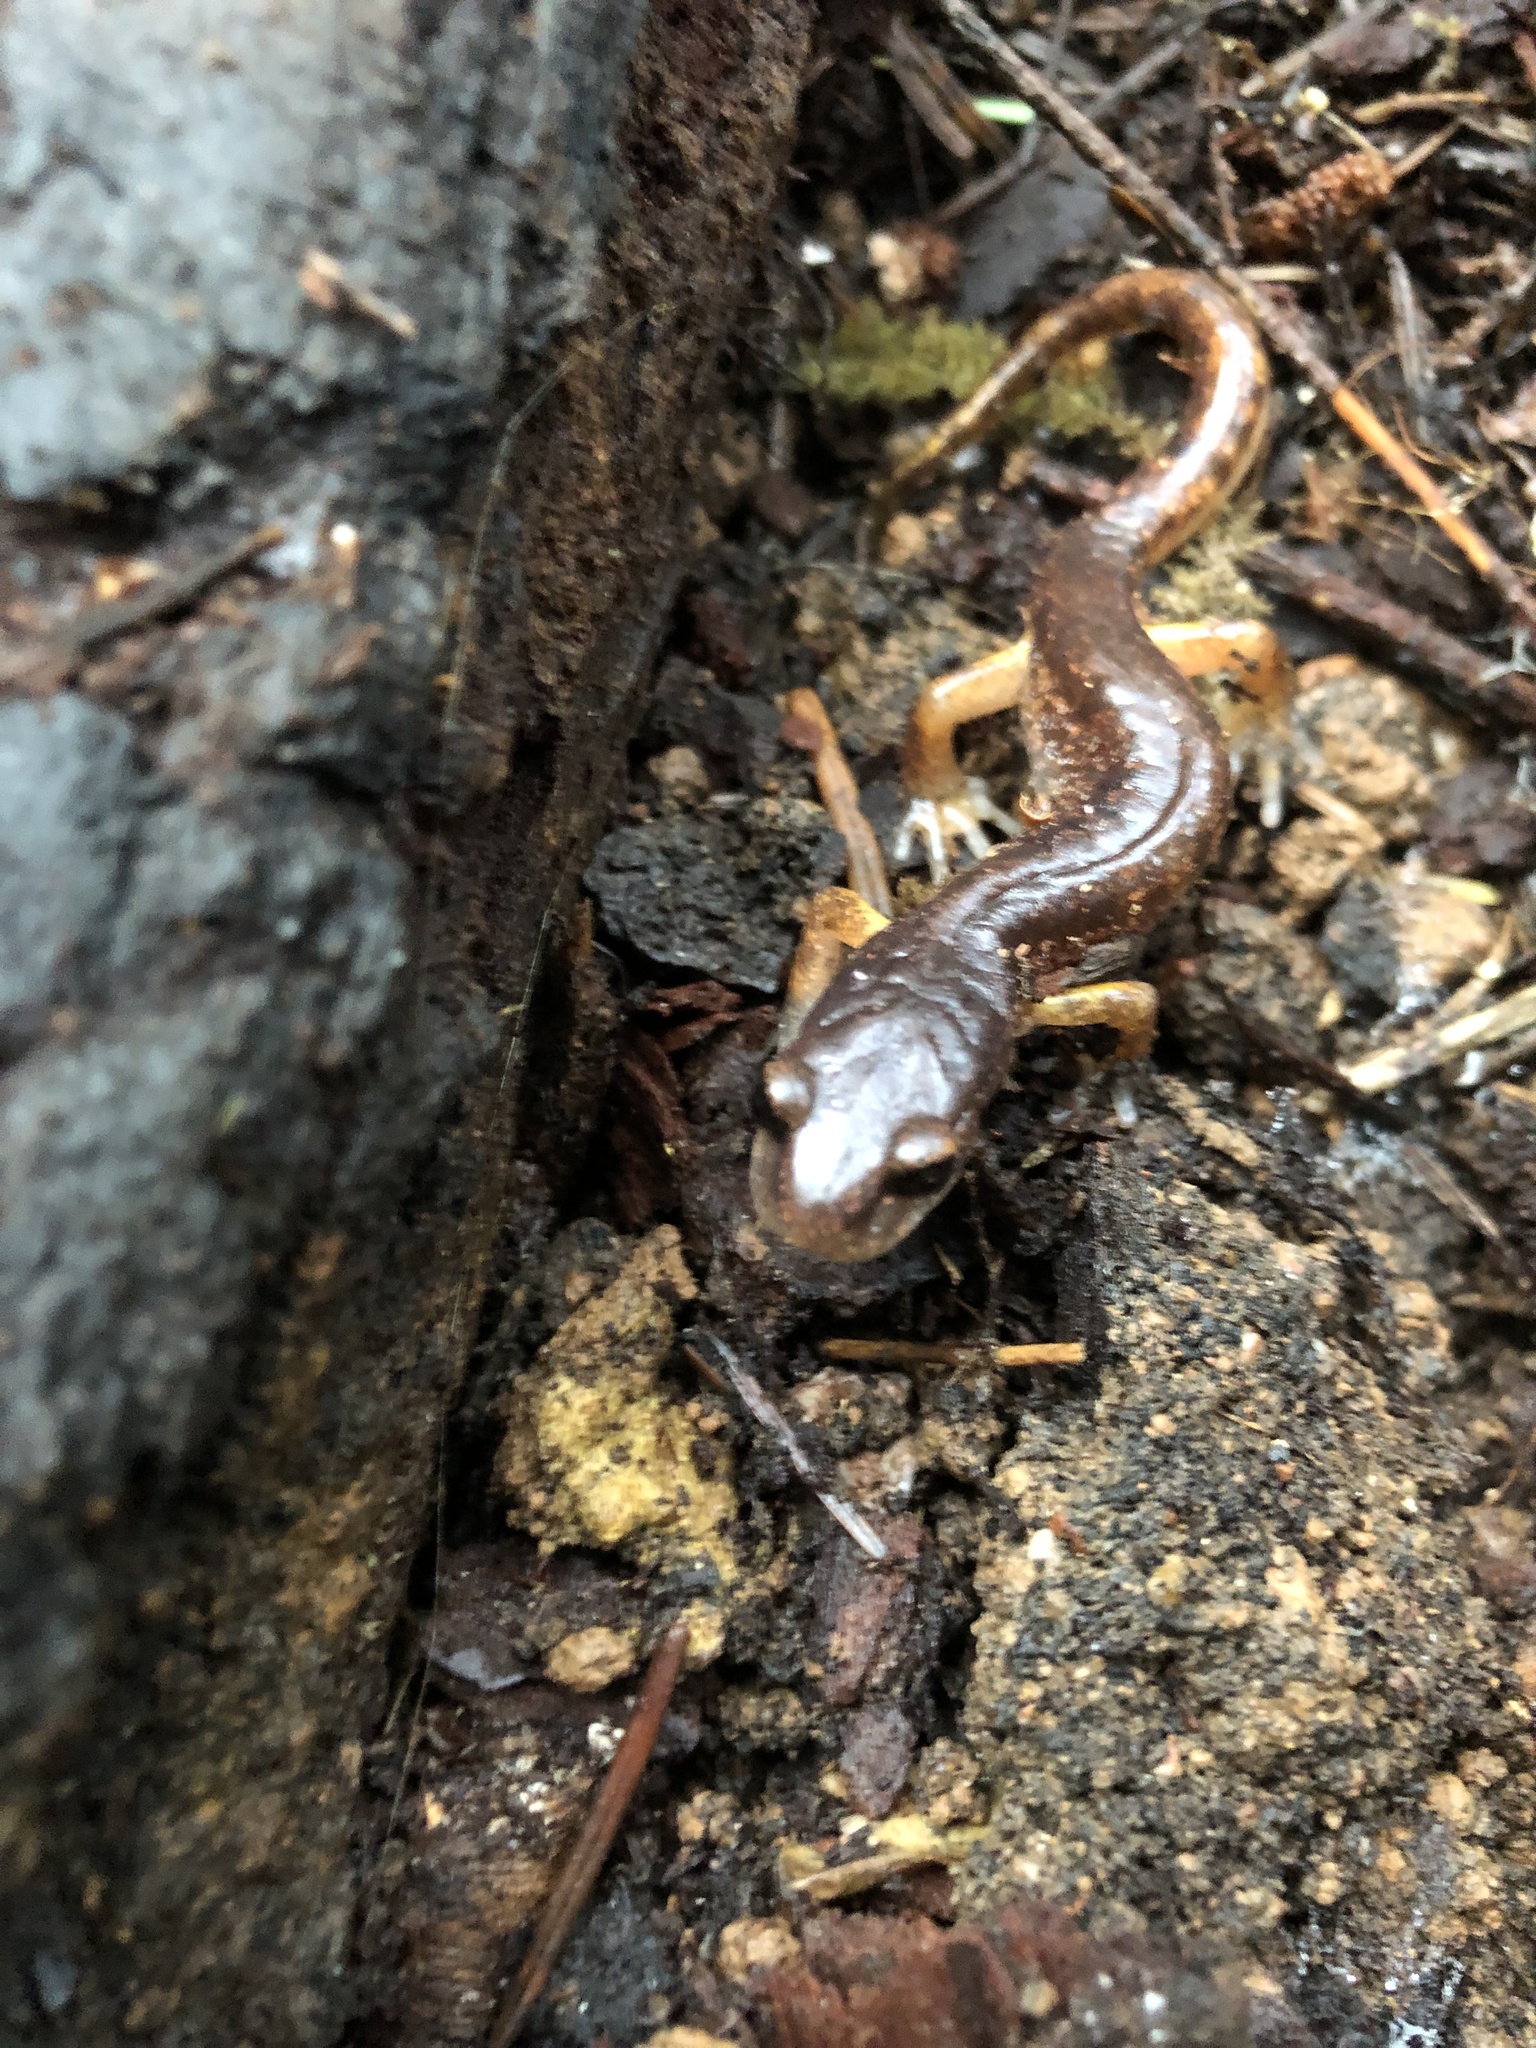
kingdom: Animalia
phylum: Chordata
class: Amphibia
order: Caudata
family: Plethodontidae
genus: Ensatina
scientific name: Ensatina eschscholtzii
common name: Ensatina
